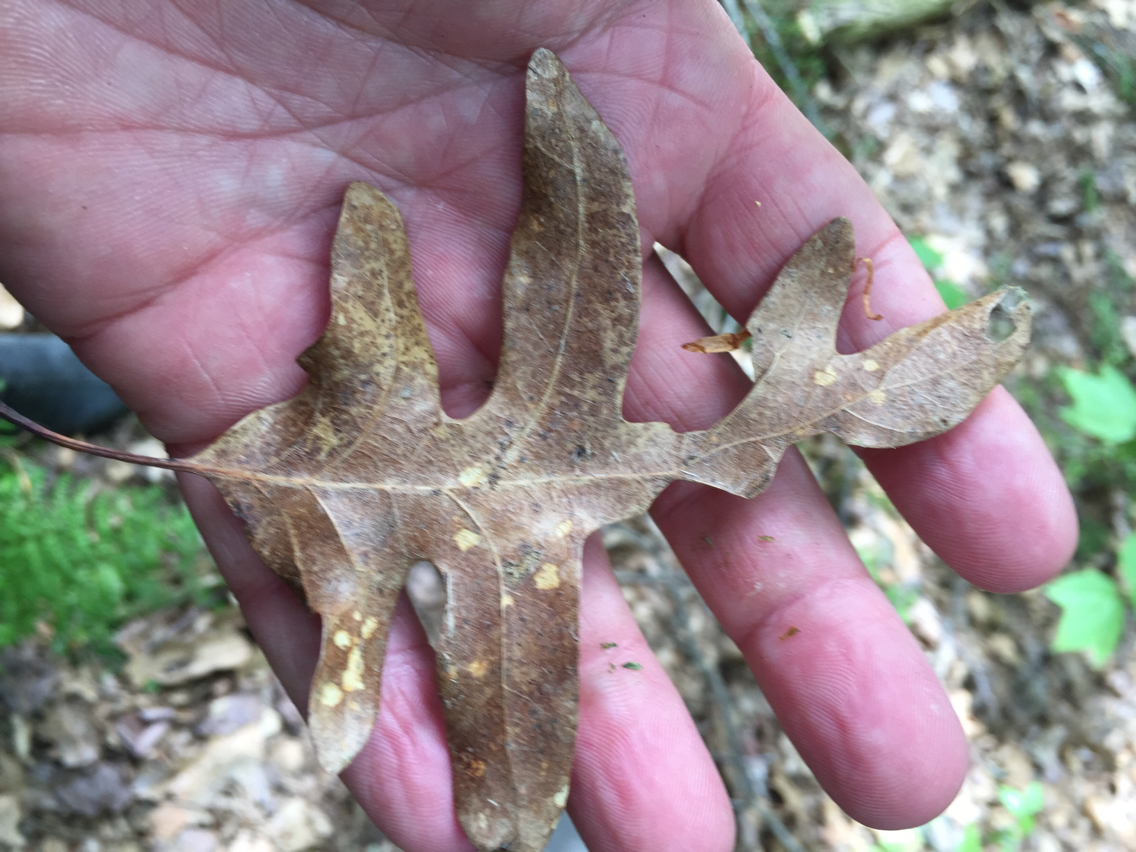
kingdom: Plantae
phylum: Tracheophyta
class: Magnoliopsida
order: Fagales
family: Fagaceae
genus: Quercus
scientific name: Quercus alba
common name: White oak
